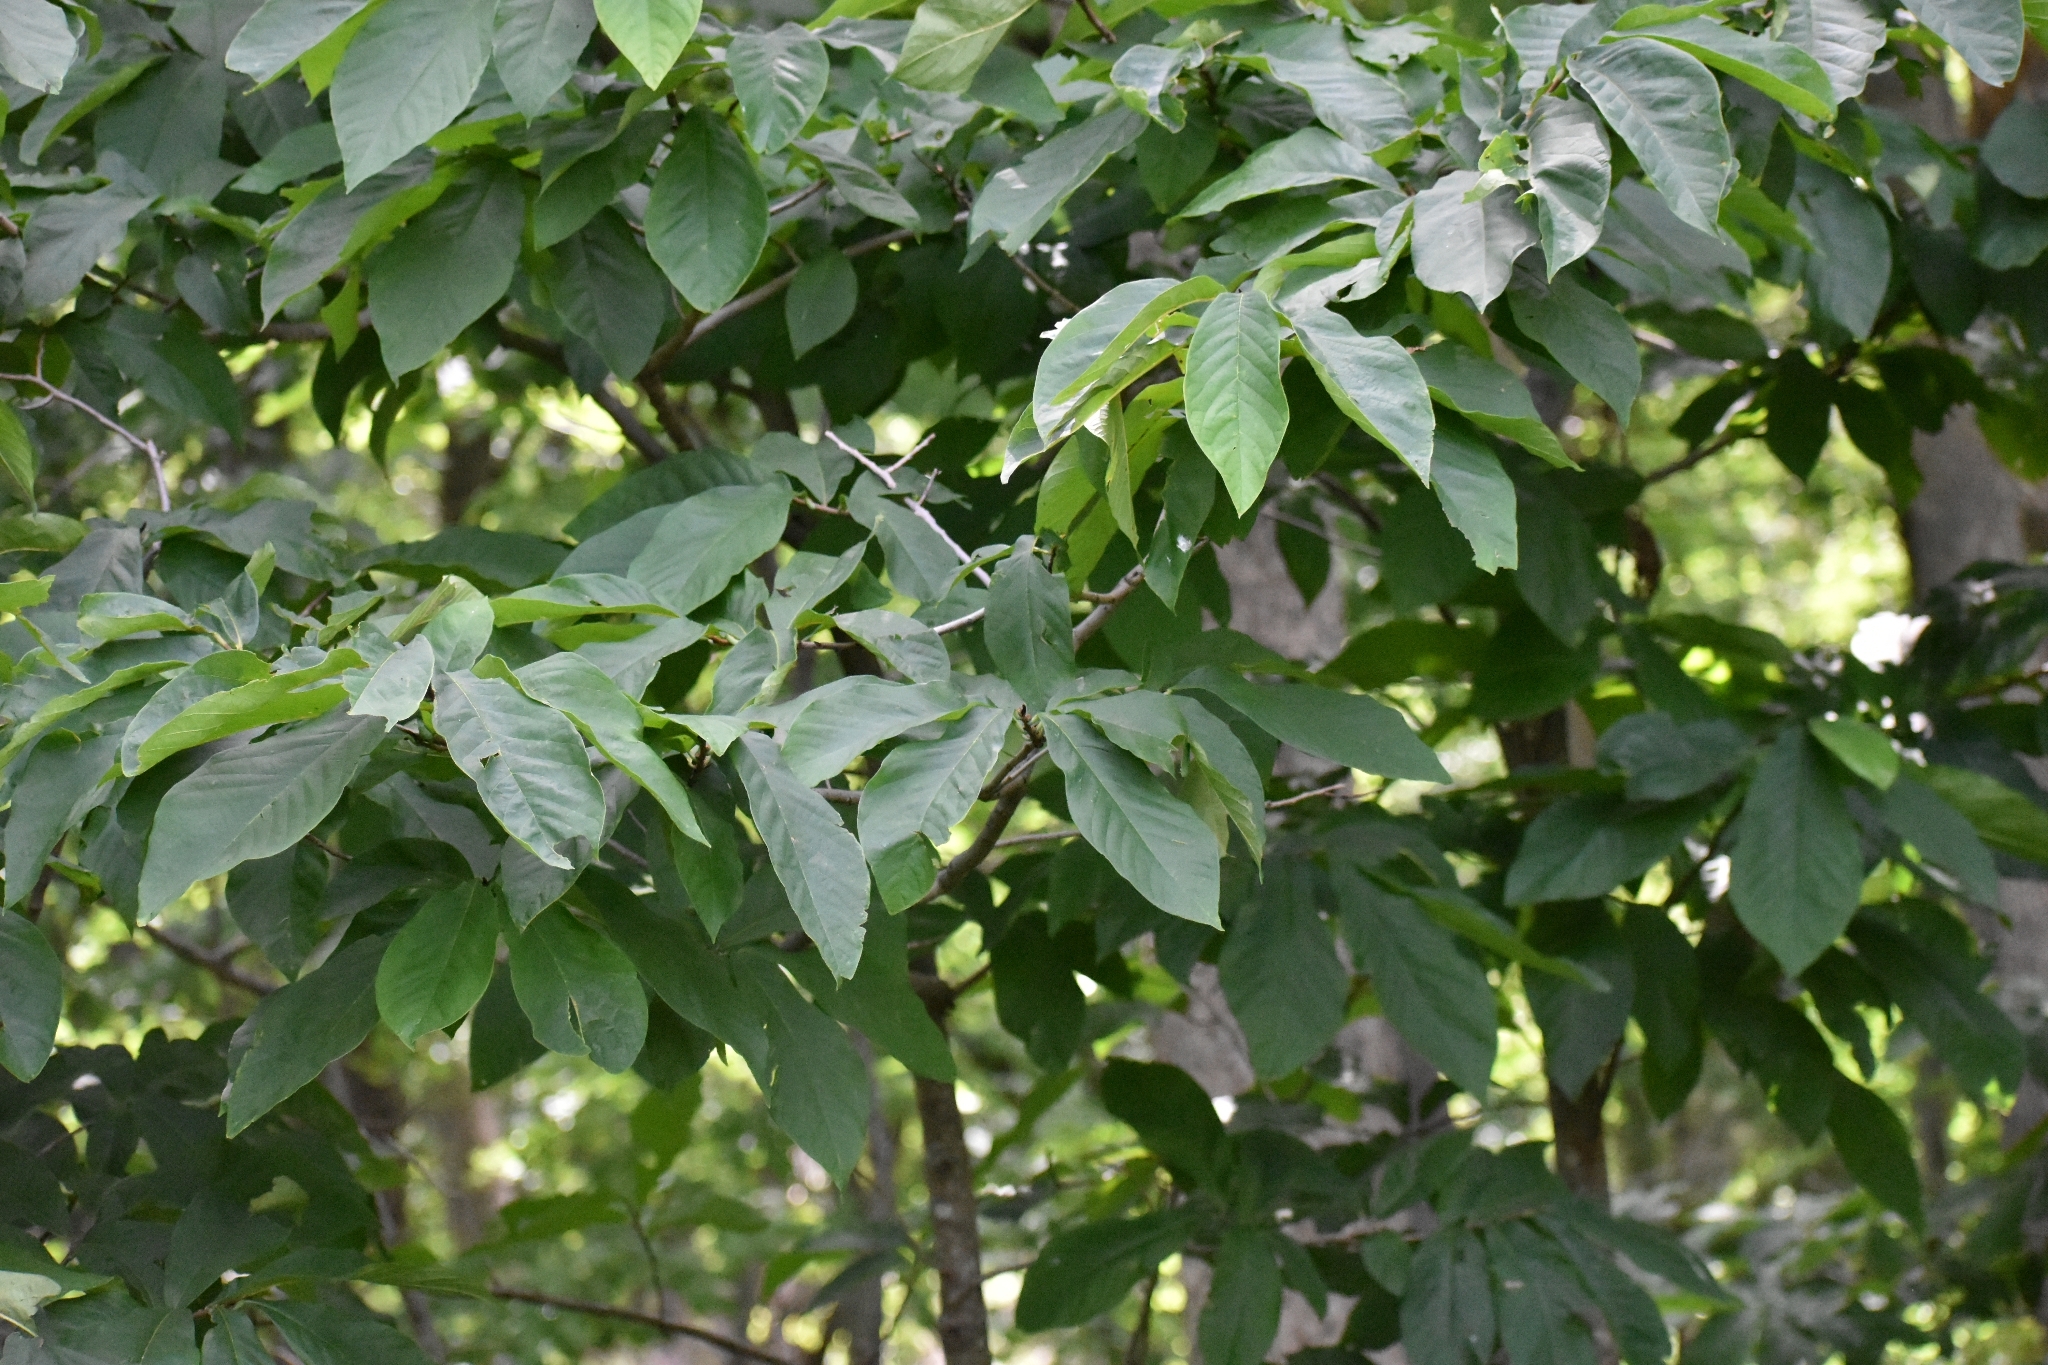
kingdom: Plantae
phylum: Tracheophyta
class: Magnoliopsida
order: Magnoliales
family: Annonaceae
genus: Asimina
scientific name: Asimina triloba
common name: Dog-banana
